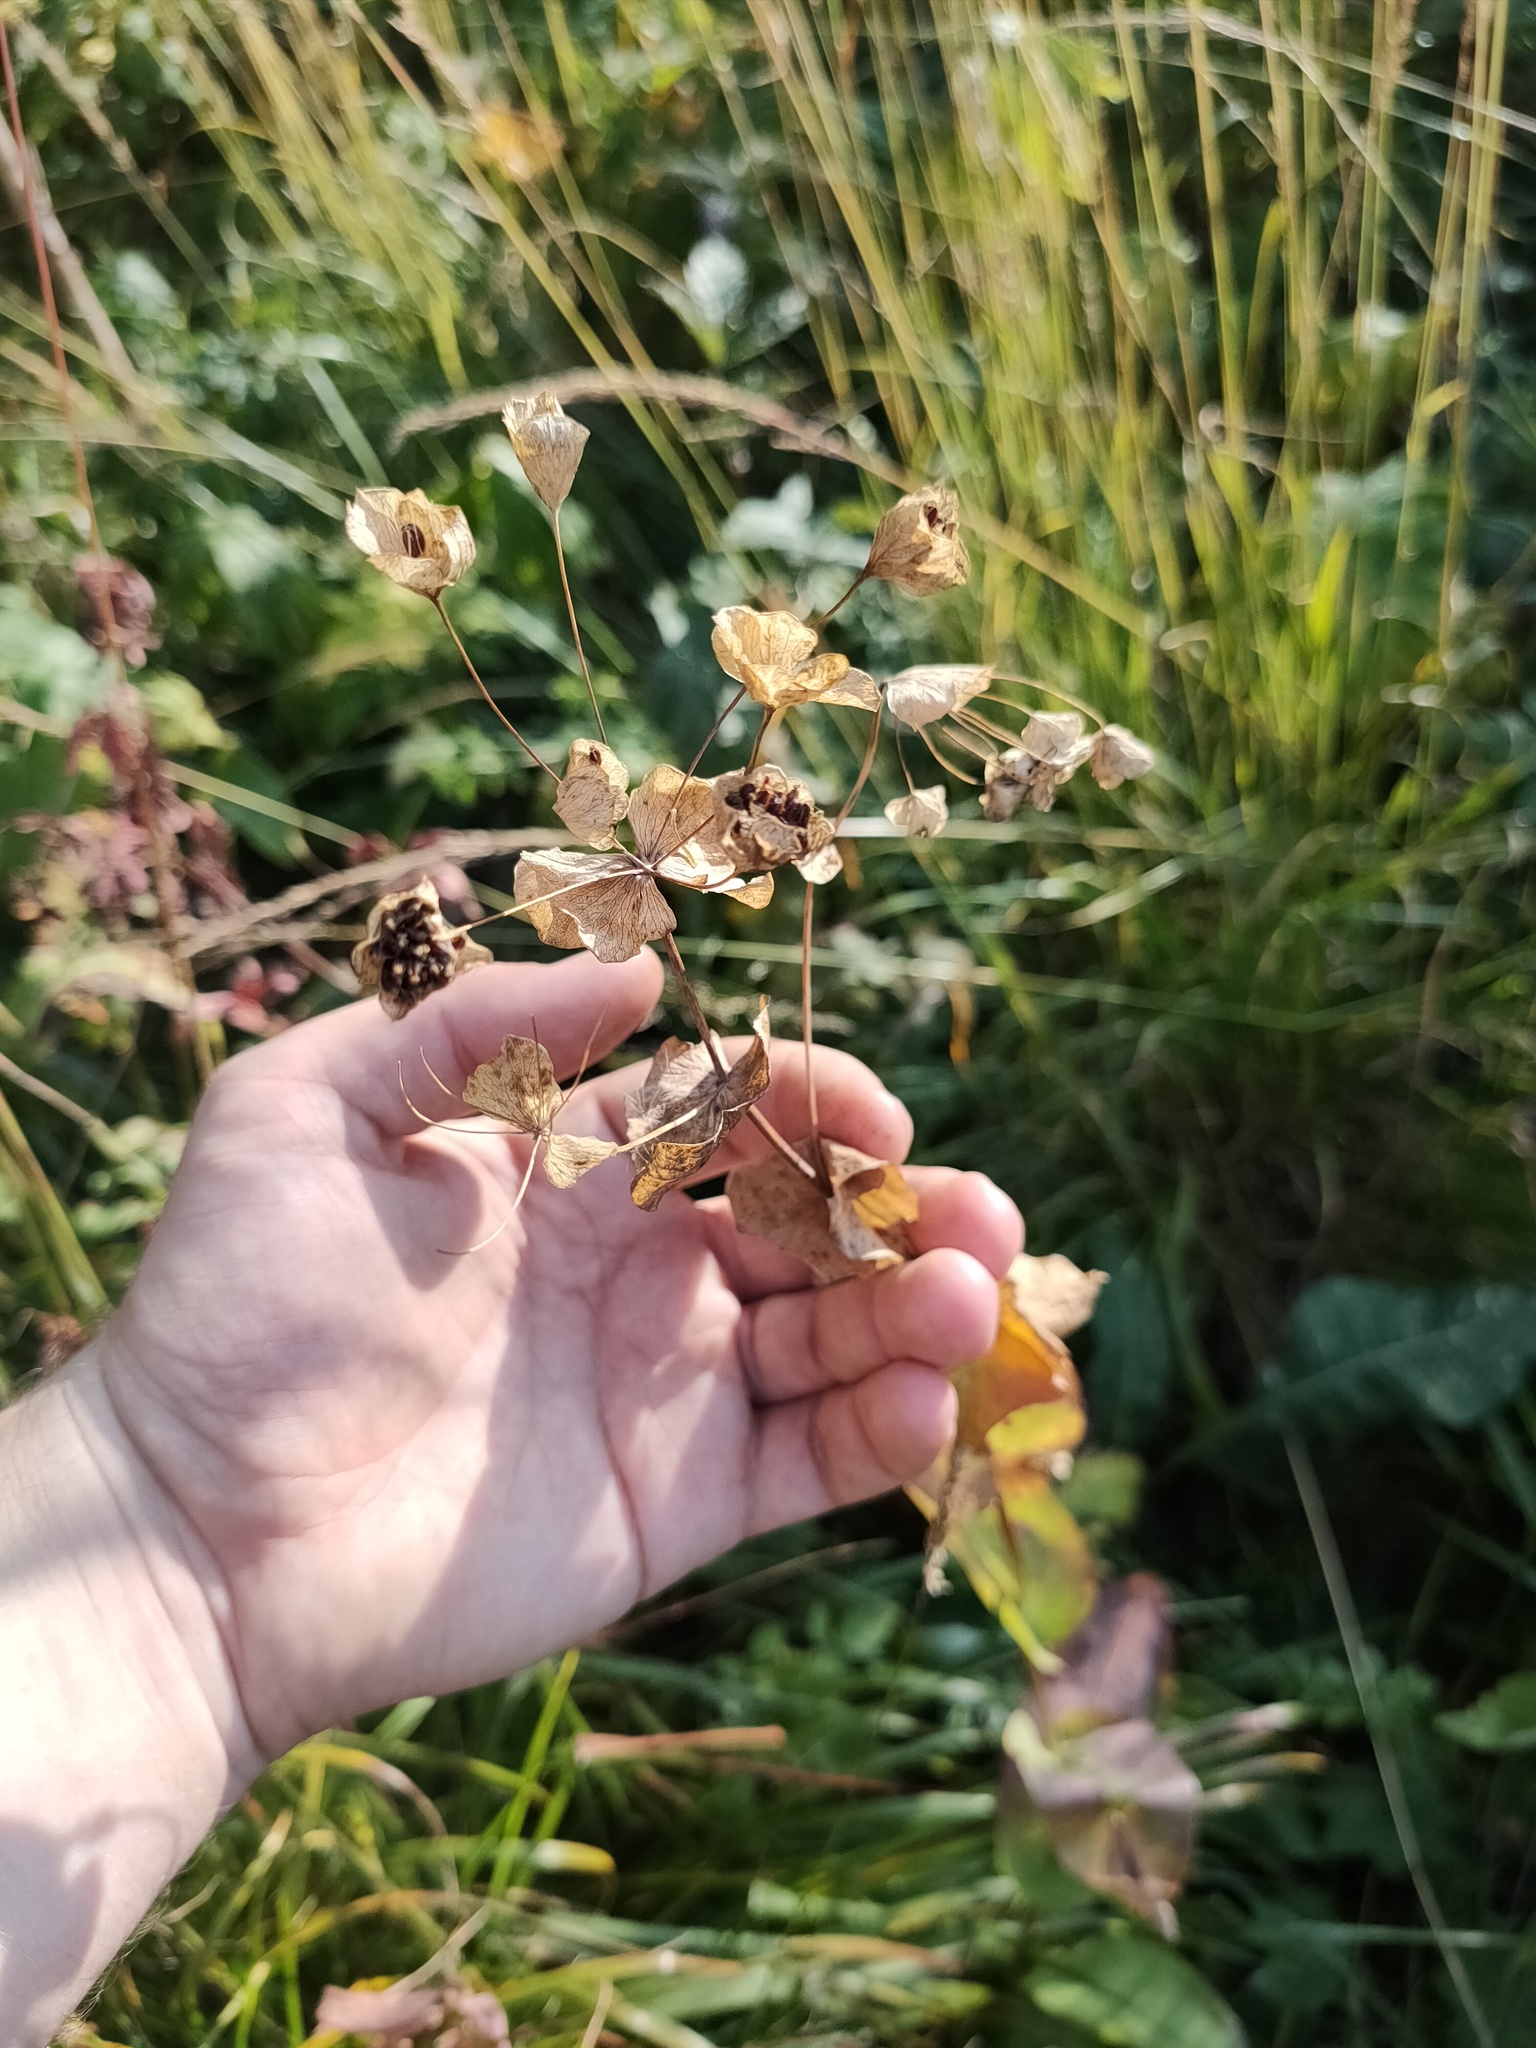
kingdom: Plantae
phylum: Tracheophyta
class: Magnoliopsida
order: Apiales
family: Apiaceae
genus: Bupleurum
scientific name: Bupleurum aureum
